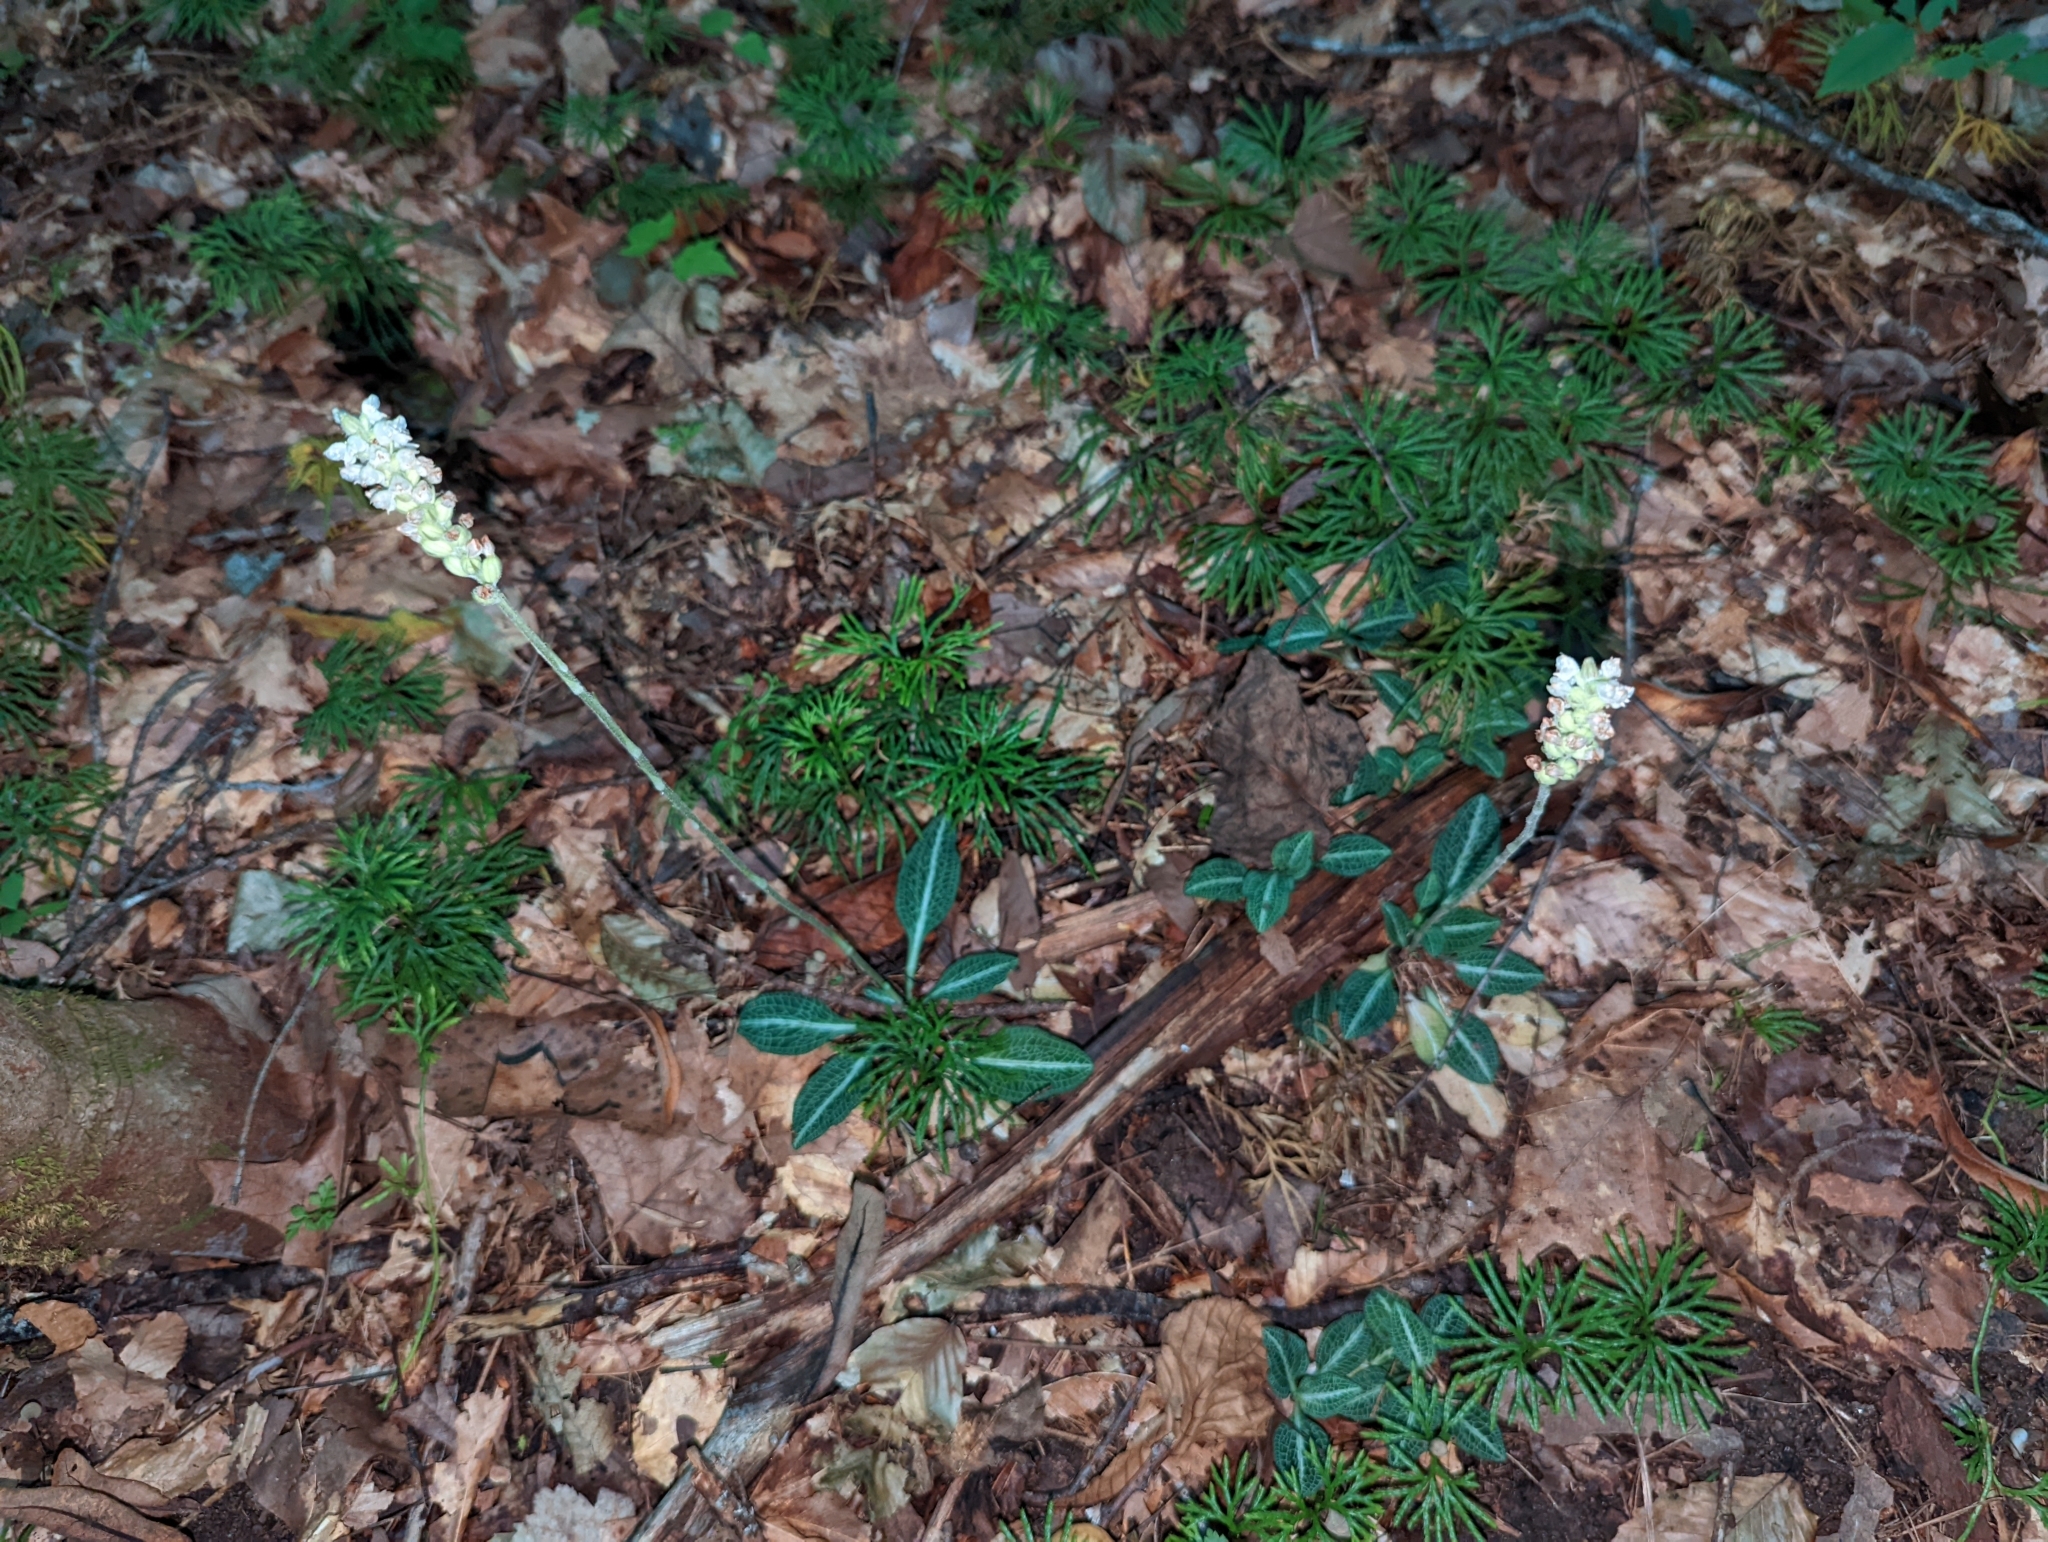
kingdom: Plantae
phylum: Tracheophyta
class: Liliopsida
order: Asparagales
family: Orchidaceae
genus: Goodyera
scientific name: Goodyera pubescens
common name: Downy rattlesnake-plantain
